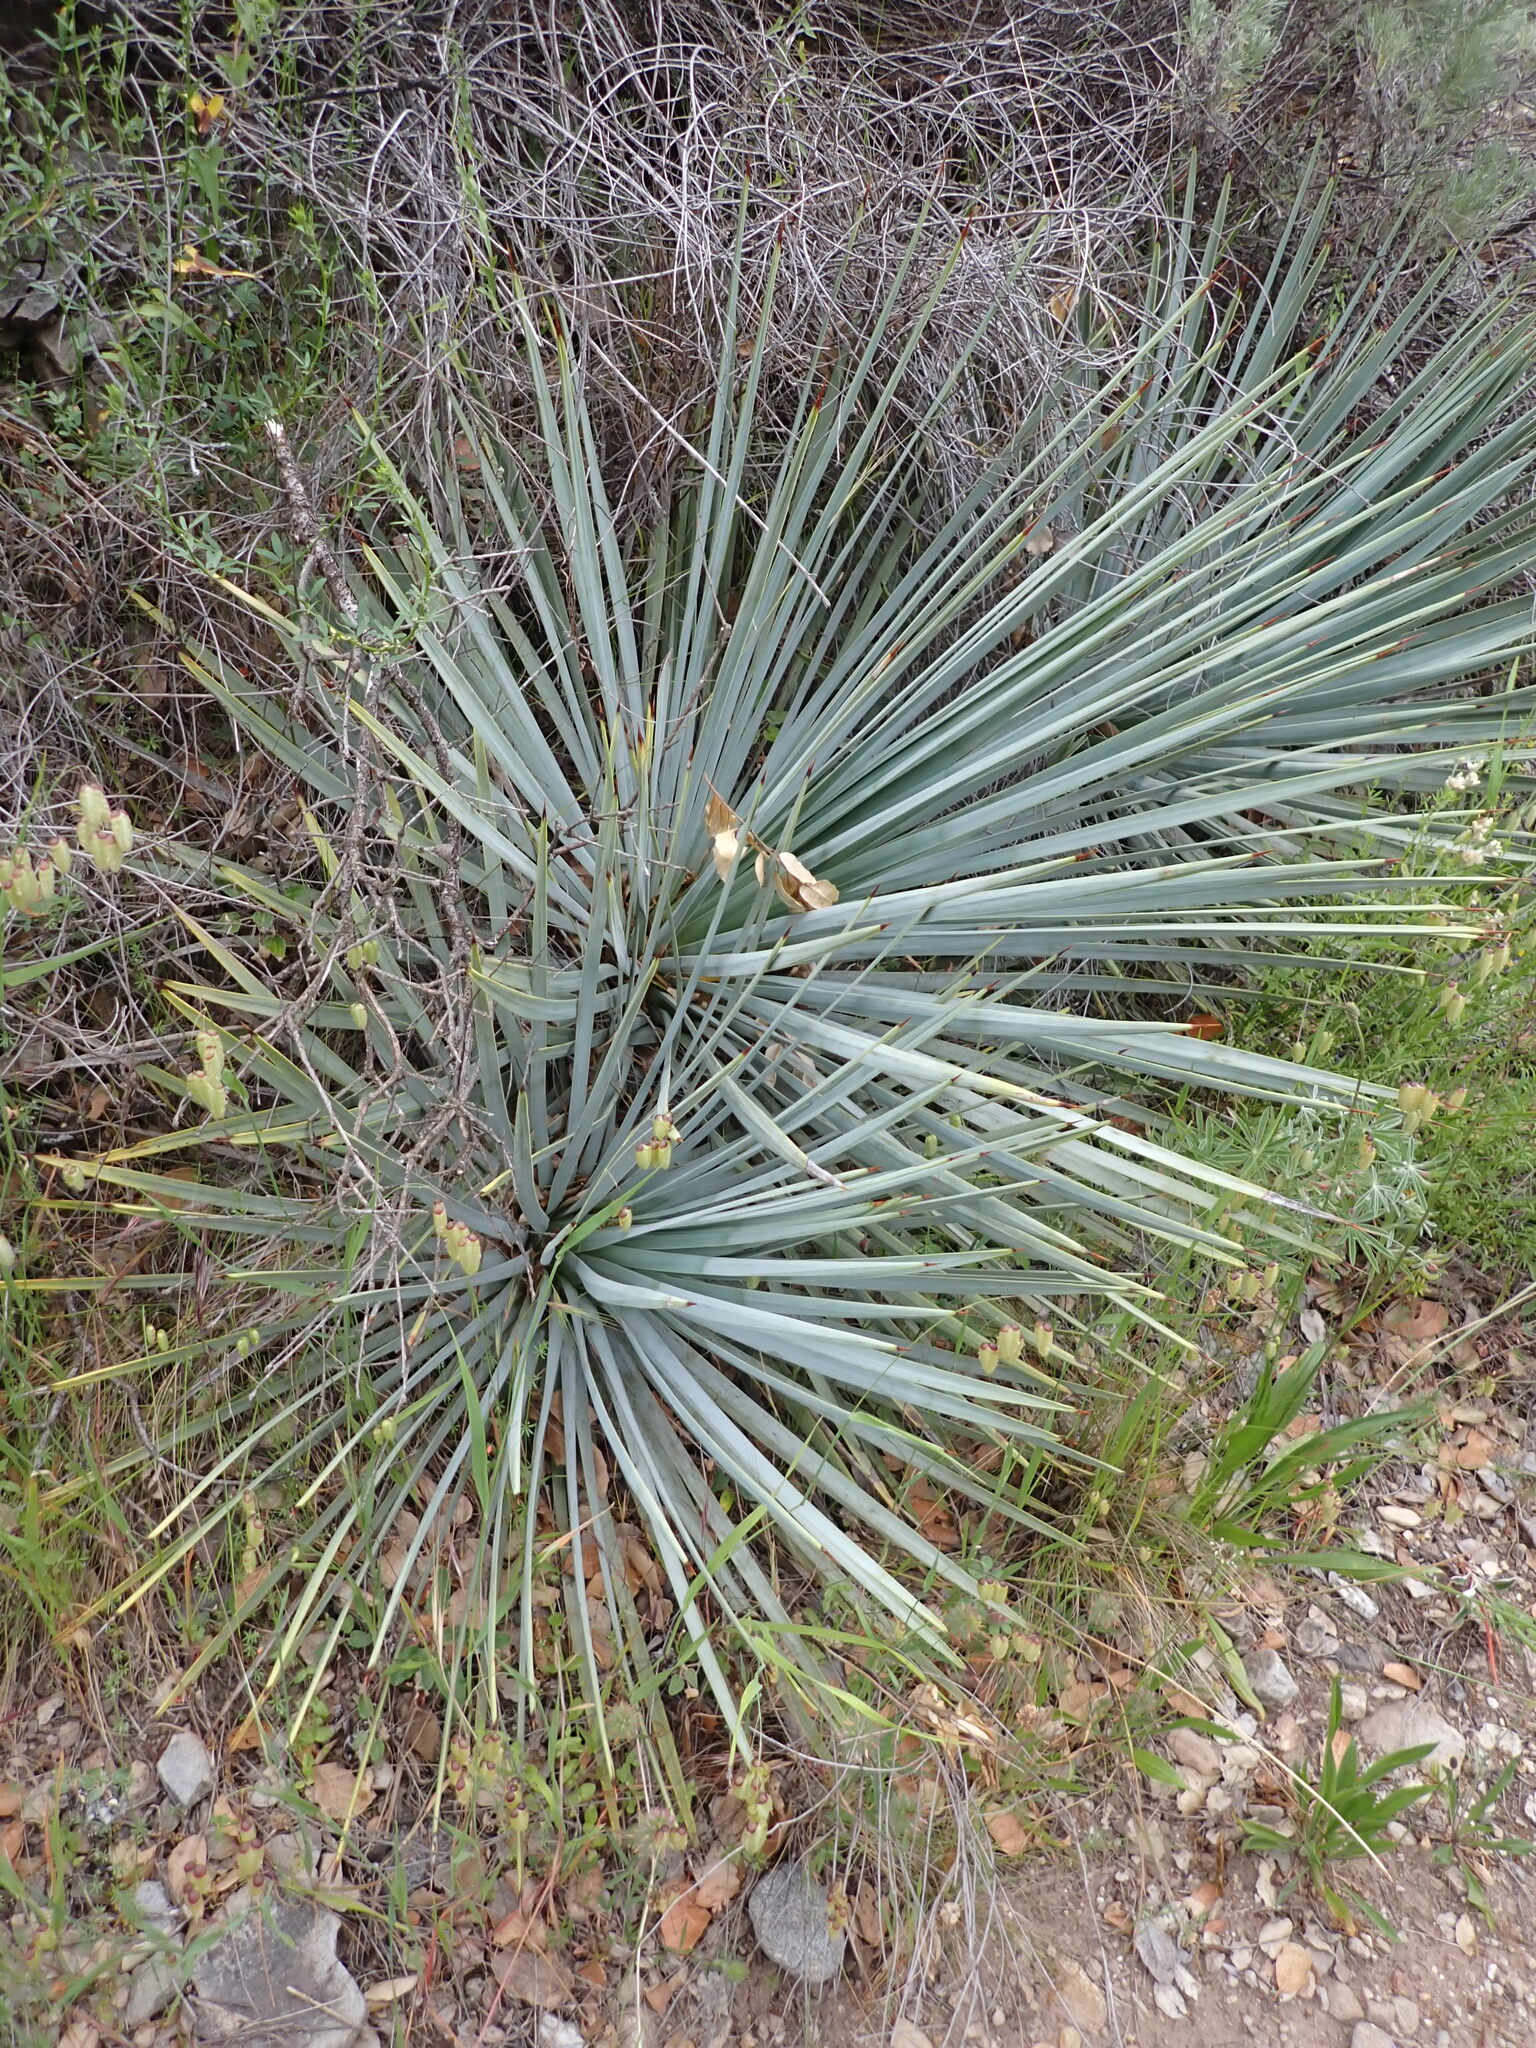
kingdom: Plantae
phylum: Tracheophyta
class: Liliopsida
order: Asparagales
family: Asparagaceae
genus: Hesperoyucca
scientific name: Hesperoyucca whipplei
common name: Our lord's-candle
